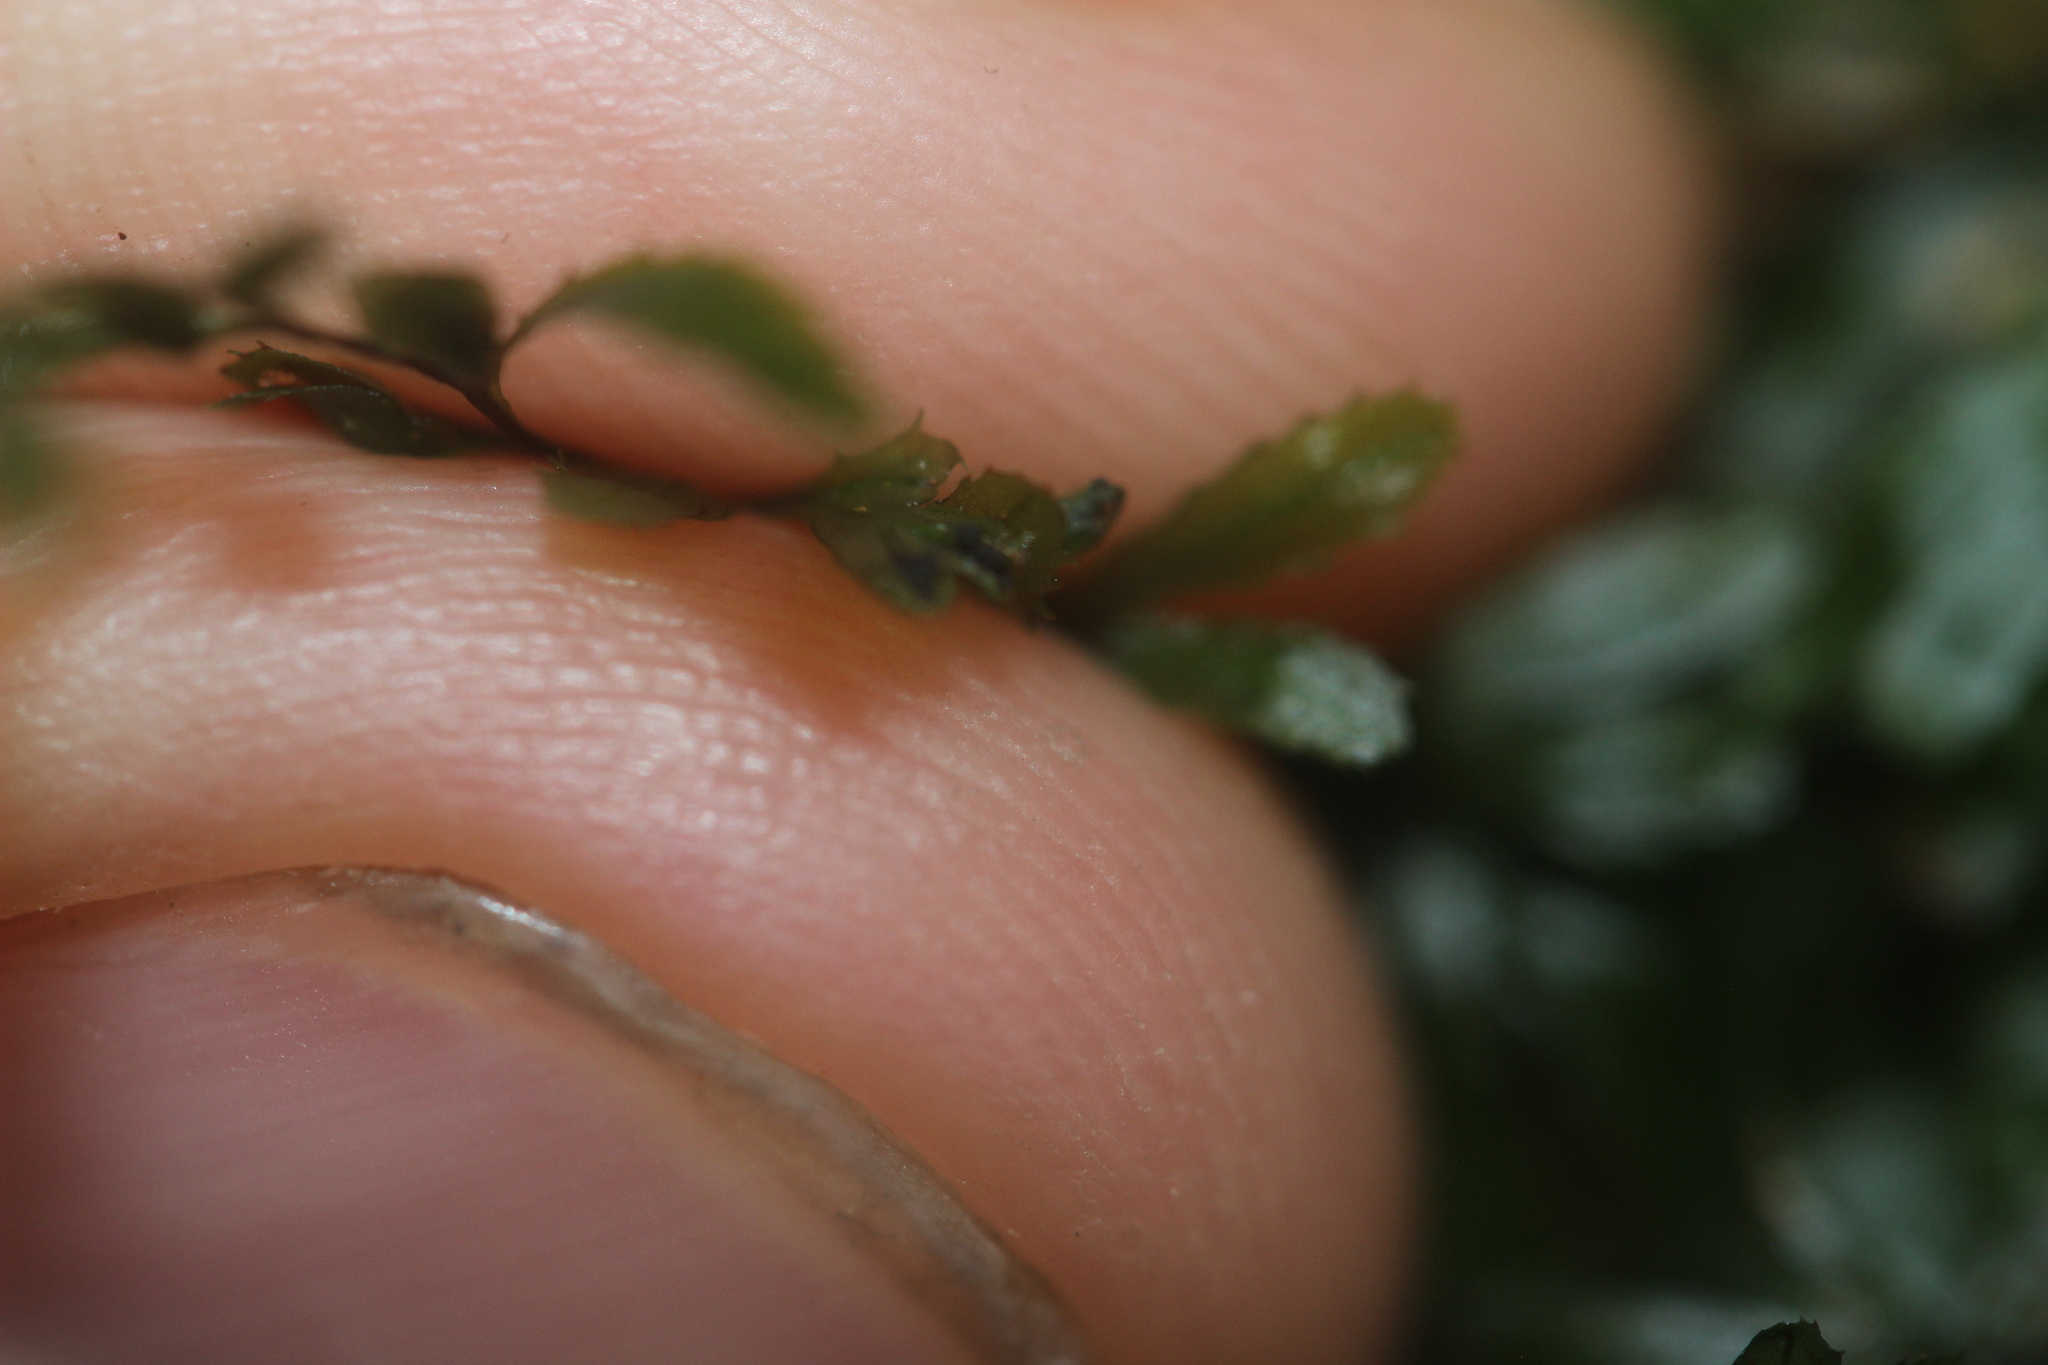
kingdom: Plantae
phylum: Tracheophyta
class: Polypodiopsida
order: Hymenophyllales
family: Hymenophyllaceae
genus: Hymenophyllum
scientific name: Hymenophyllum revolutum
